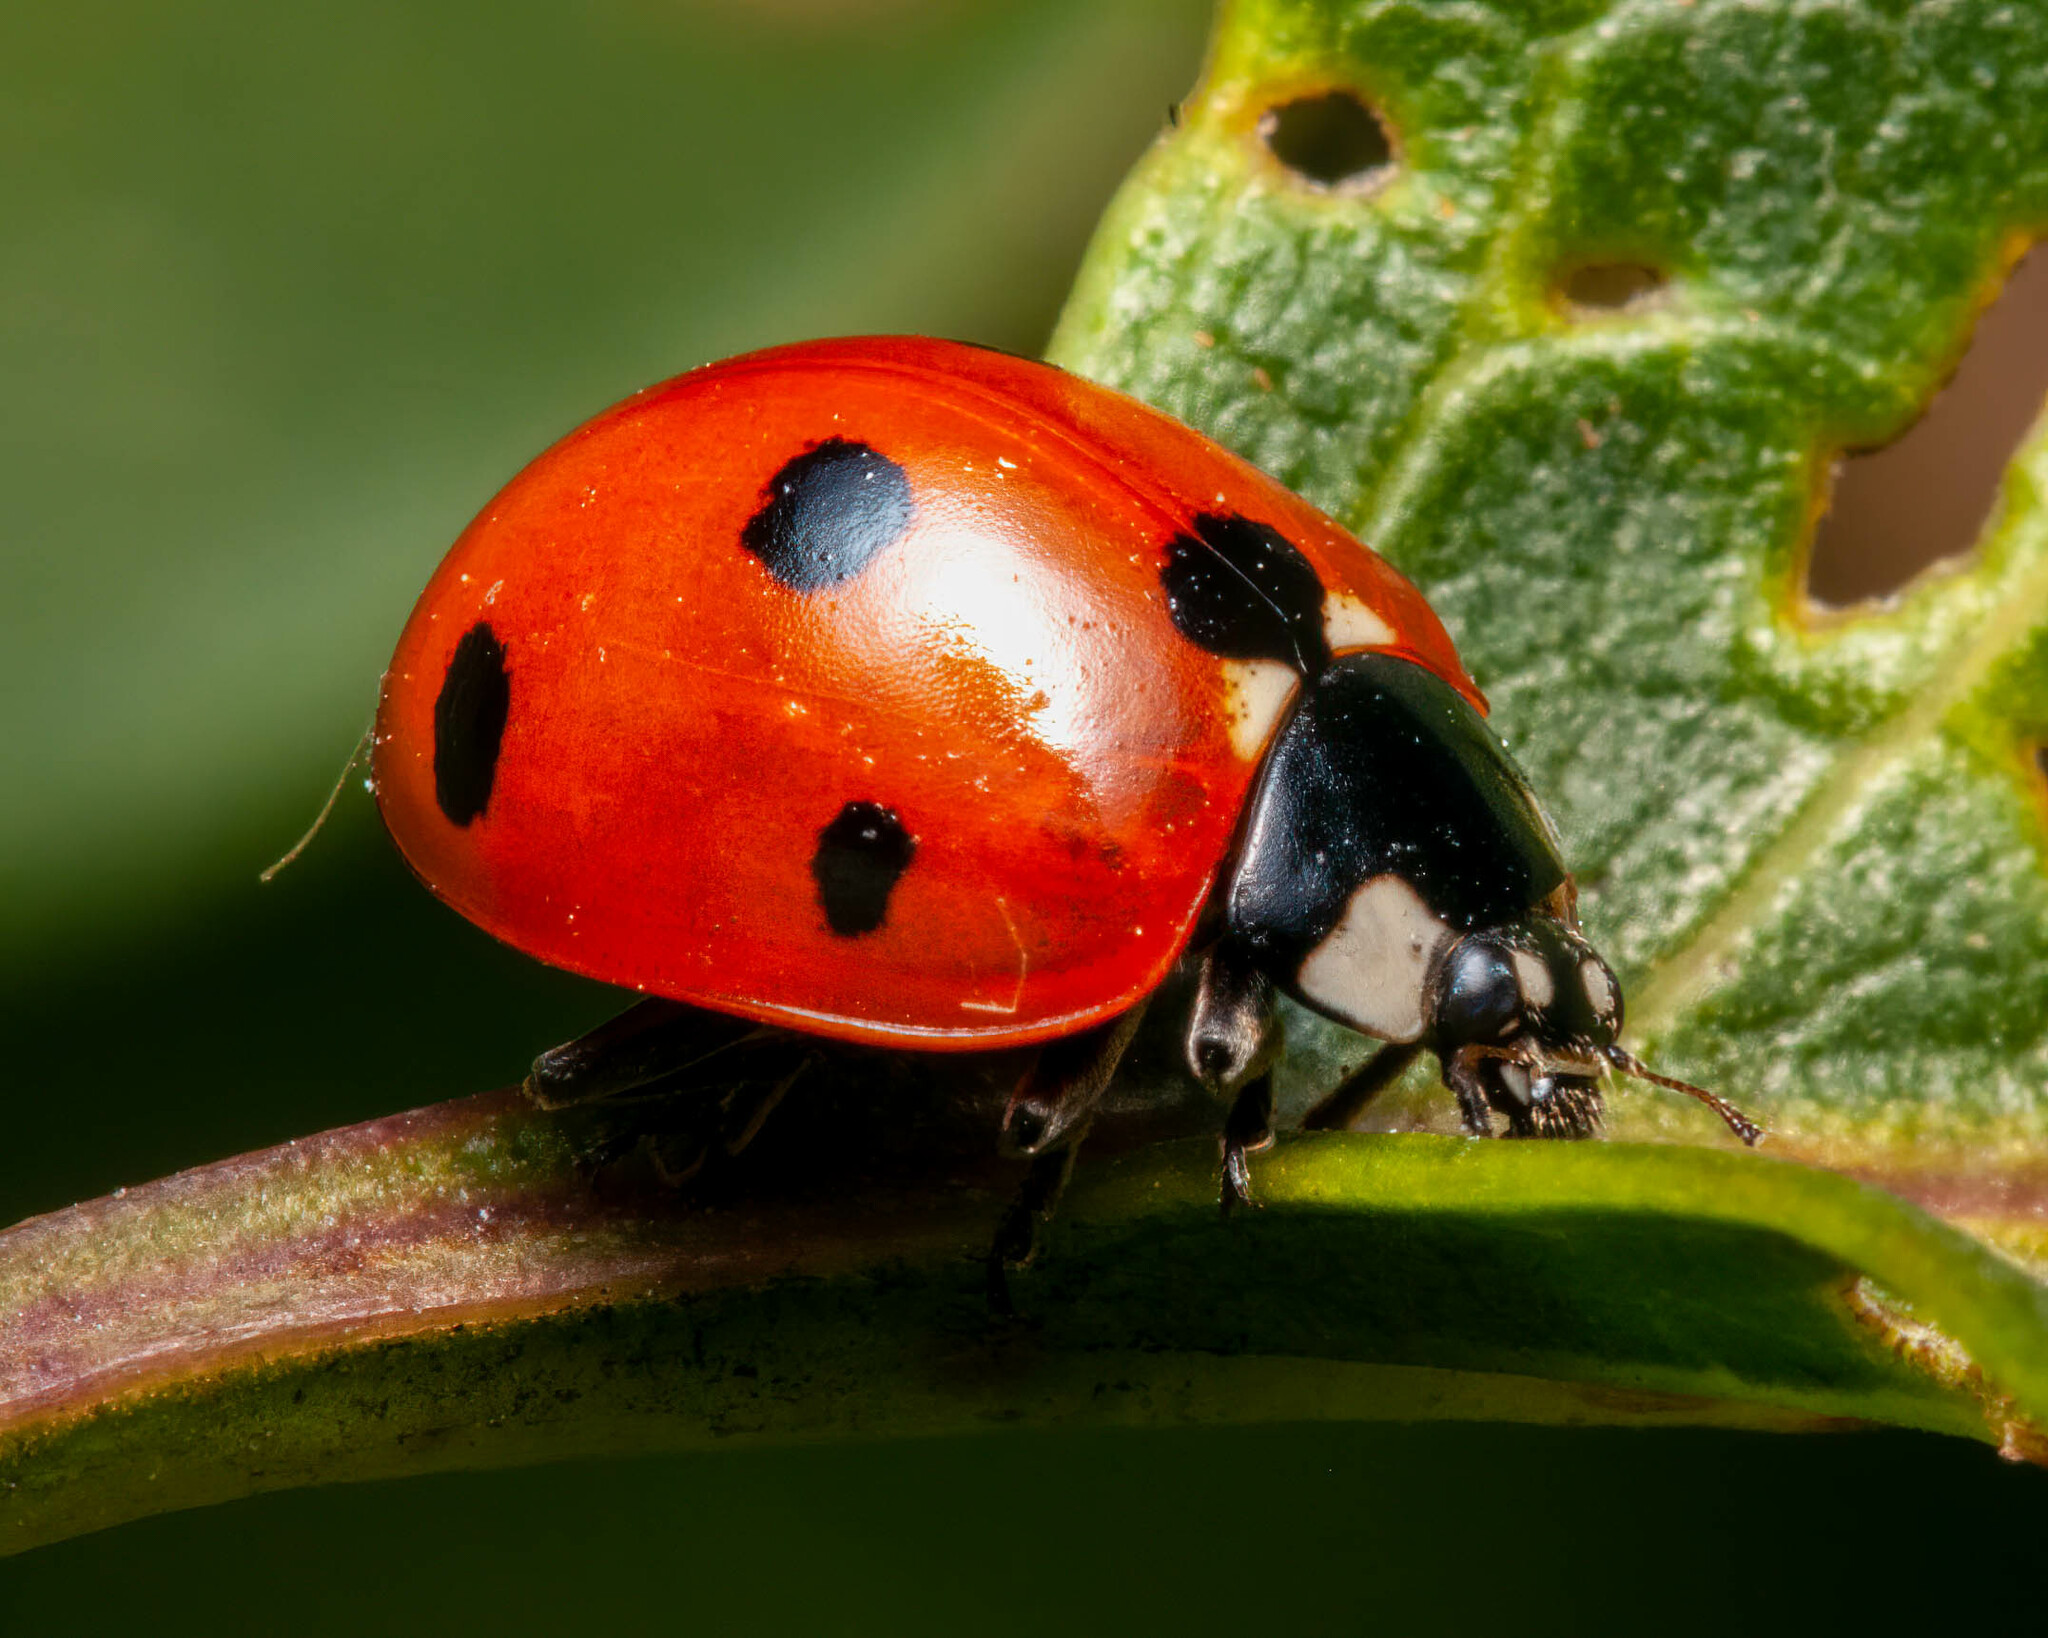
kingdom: Animalia
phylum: Arthropoda
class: Insecta
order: Coleoptera
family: Coccinellidae
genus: Coccinella
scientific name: Coccinella septempunctata
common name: Sevenspotted lady beetle
